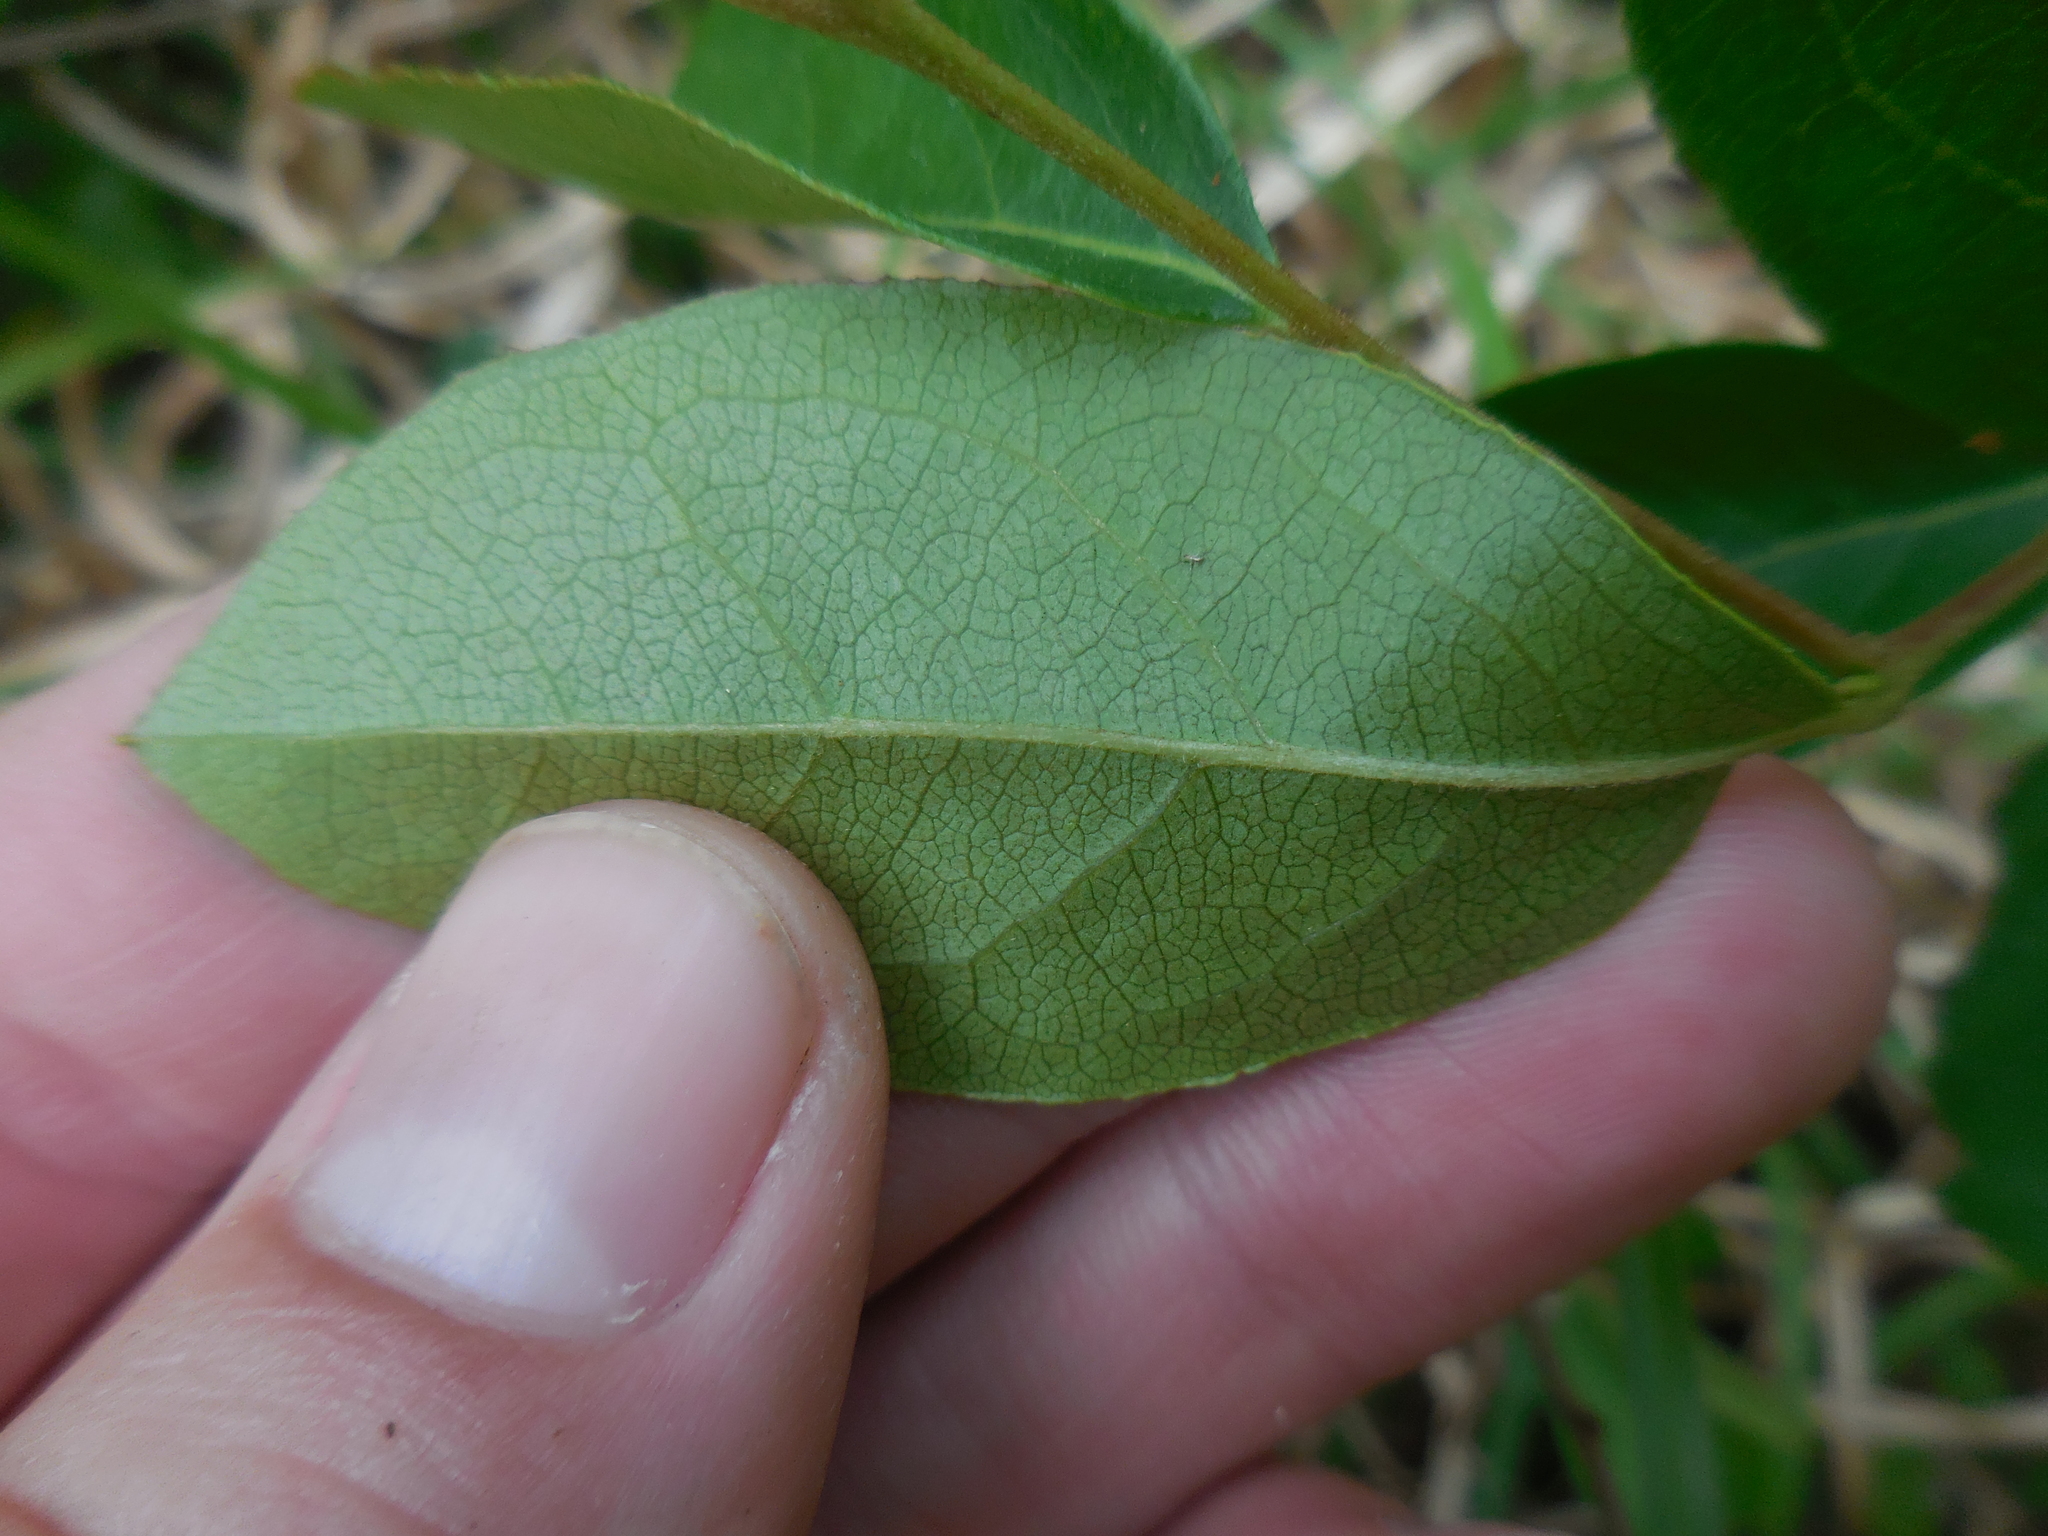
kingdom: Plantae
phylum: Tracheophyta
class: Magnoliopsida
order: Ericales
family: Ericaceae
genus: Lyonia
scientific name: Lyonia ligustrina
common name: Maleberry
